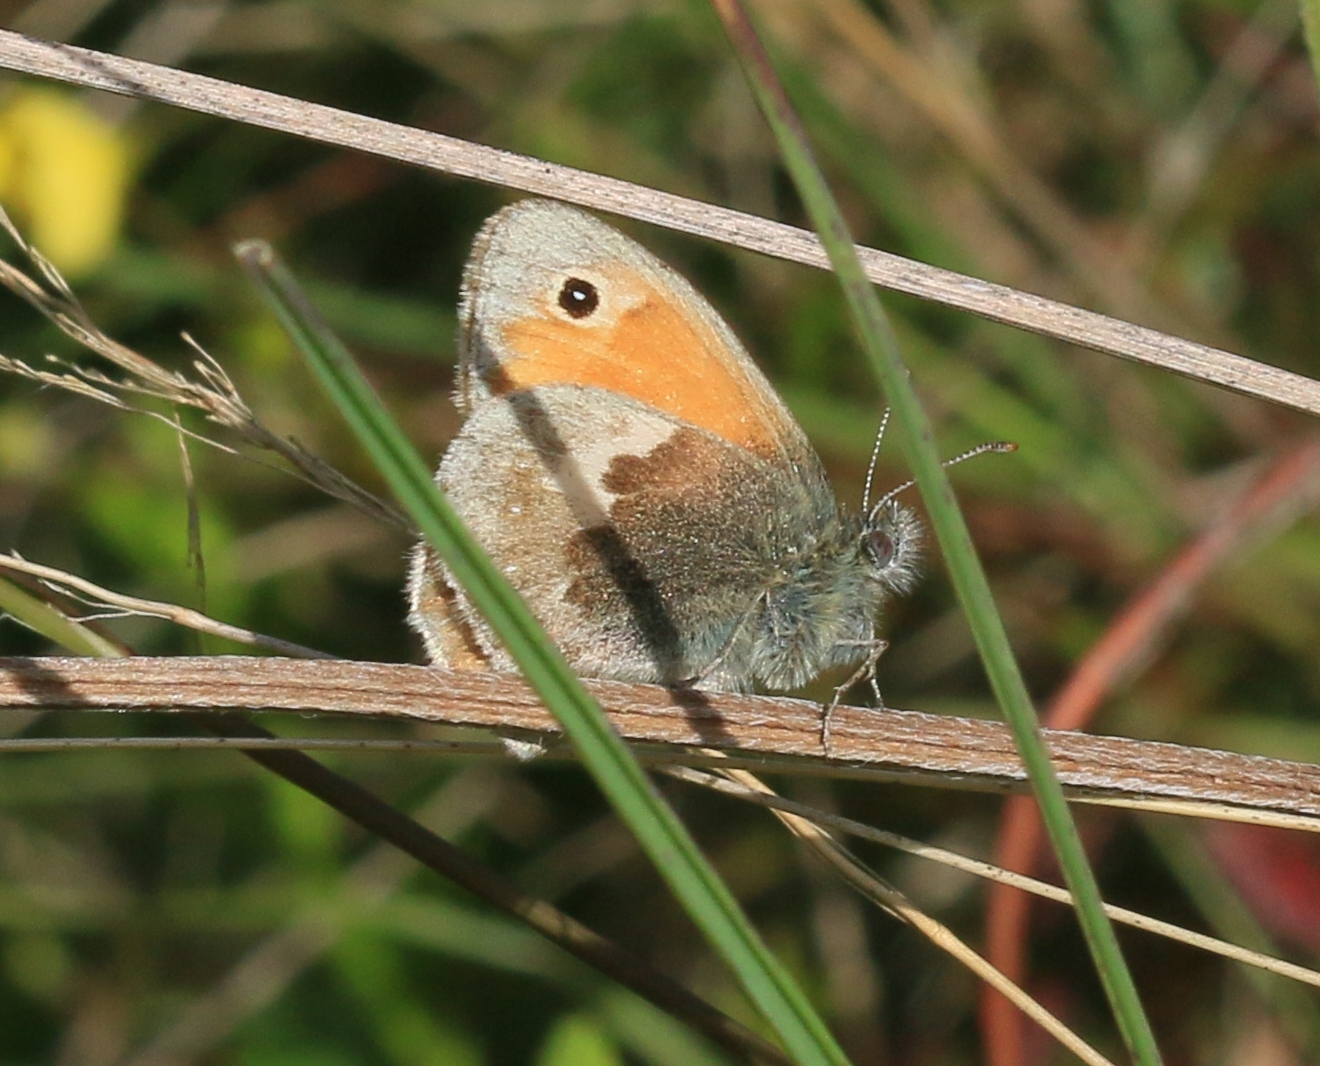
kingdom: Animalia
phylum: Arthropoda
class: Insecta
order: Lepidoptera
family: Nymphalidae
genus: Coenonympha
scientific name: Coenonympha pamphilus
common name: Small heath
